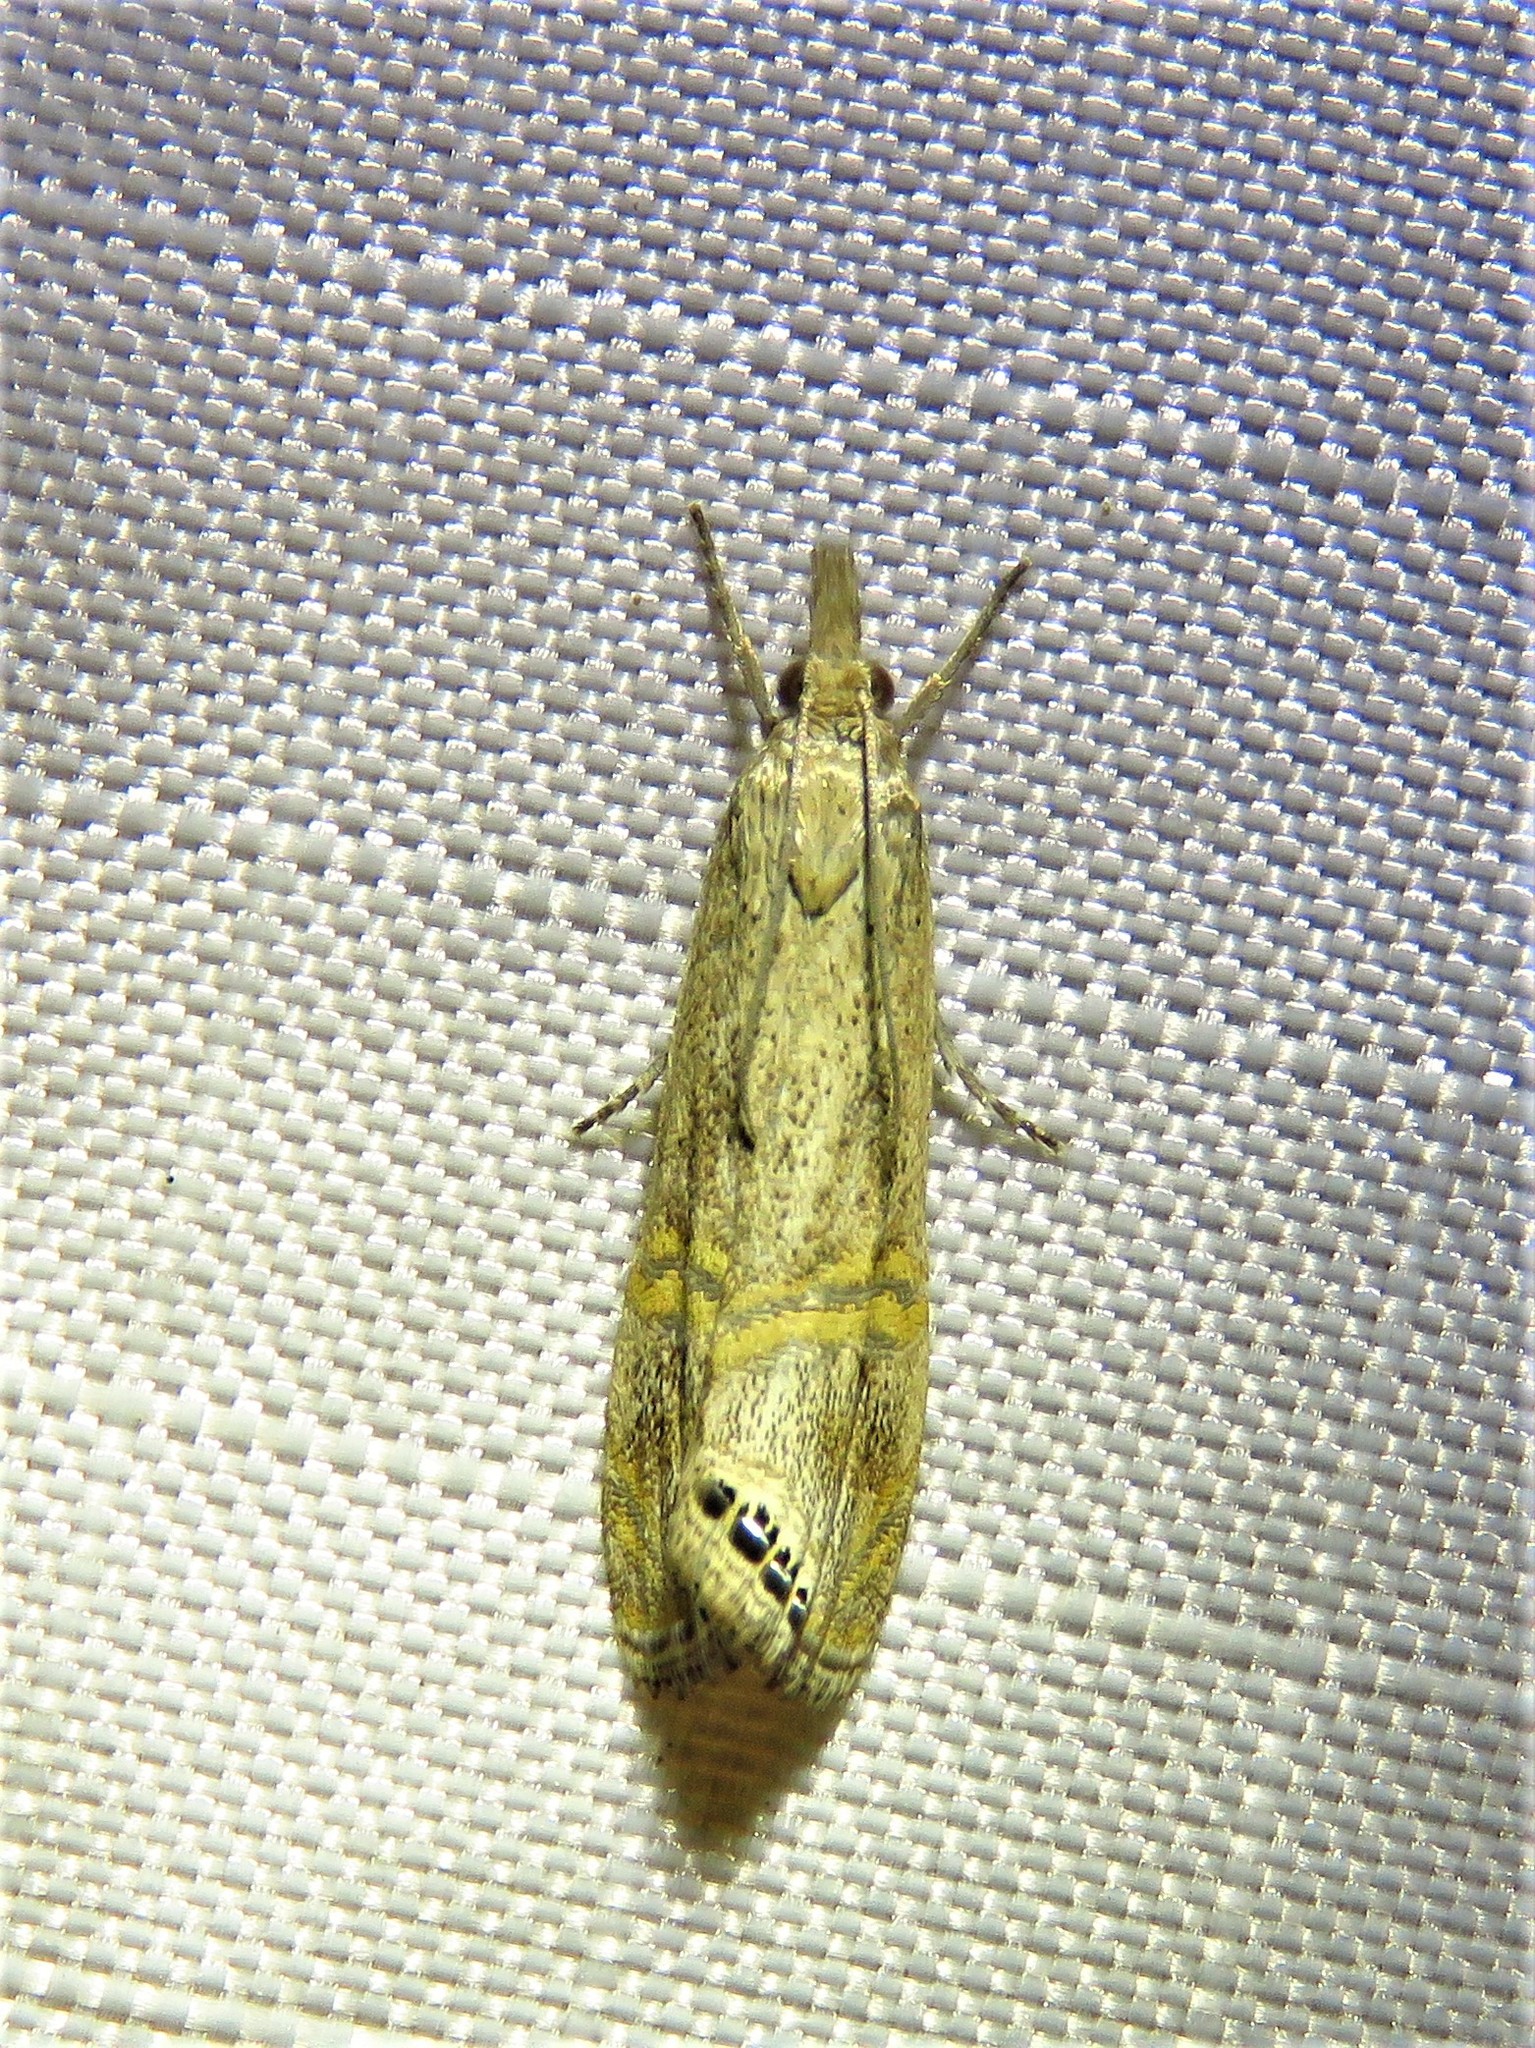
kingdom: Animalia
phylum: Arthropoda
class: Insecta
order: Lepidoptera
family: Crambidae
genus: Euchromius
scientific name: Euchromius ocellea
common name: Necklace veneer moth
